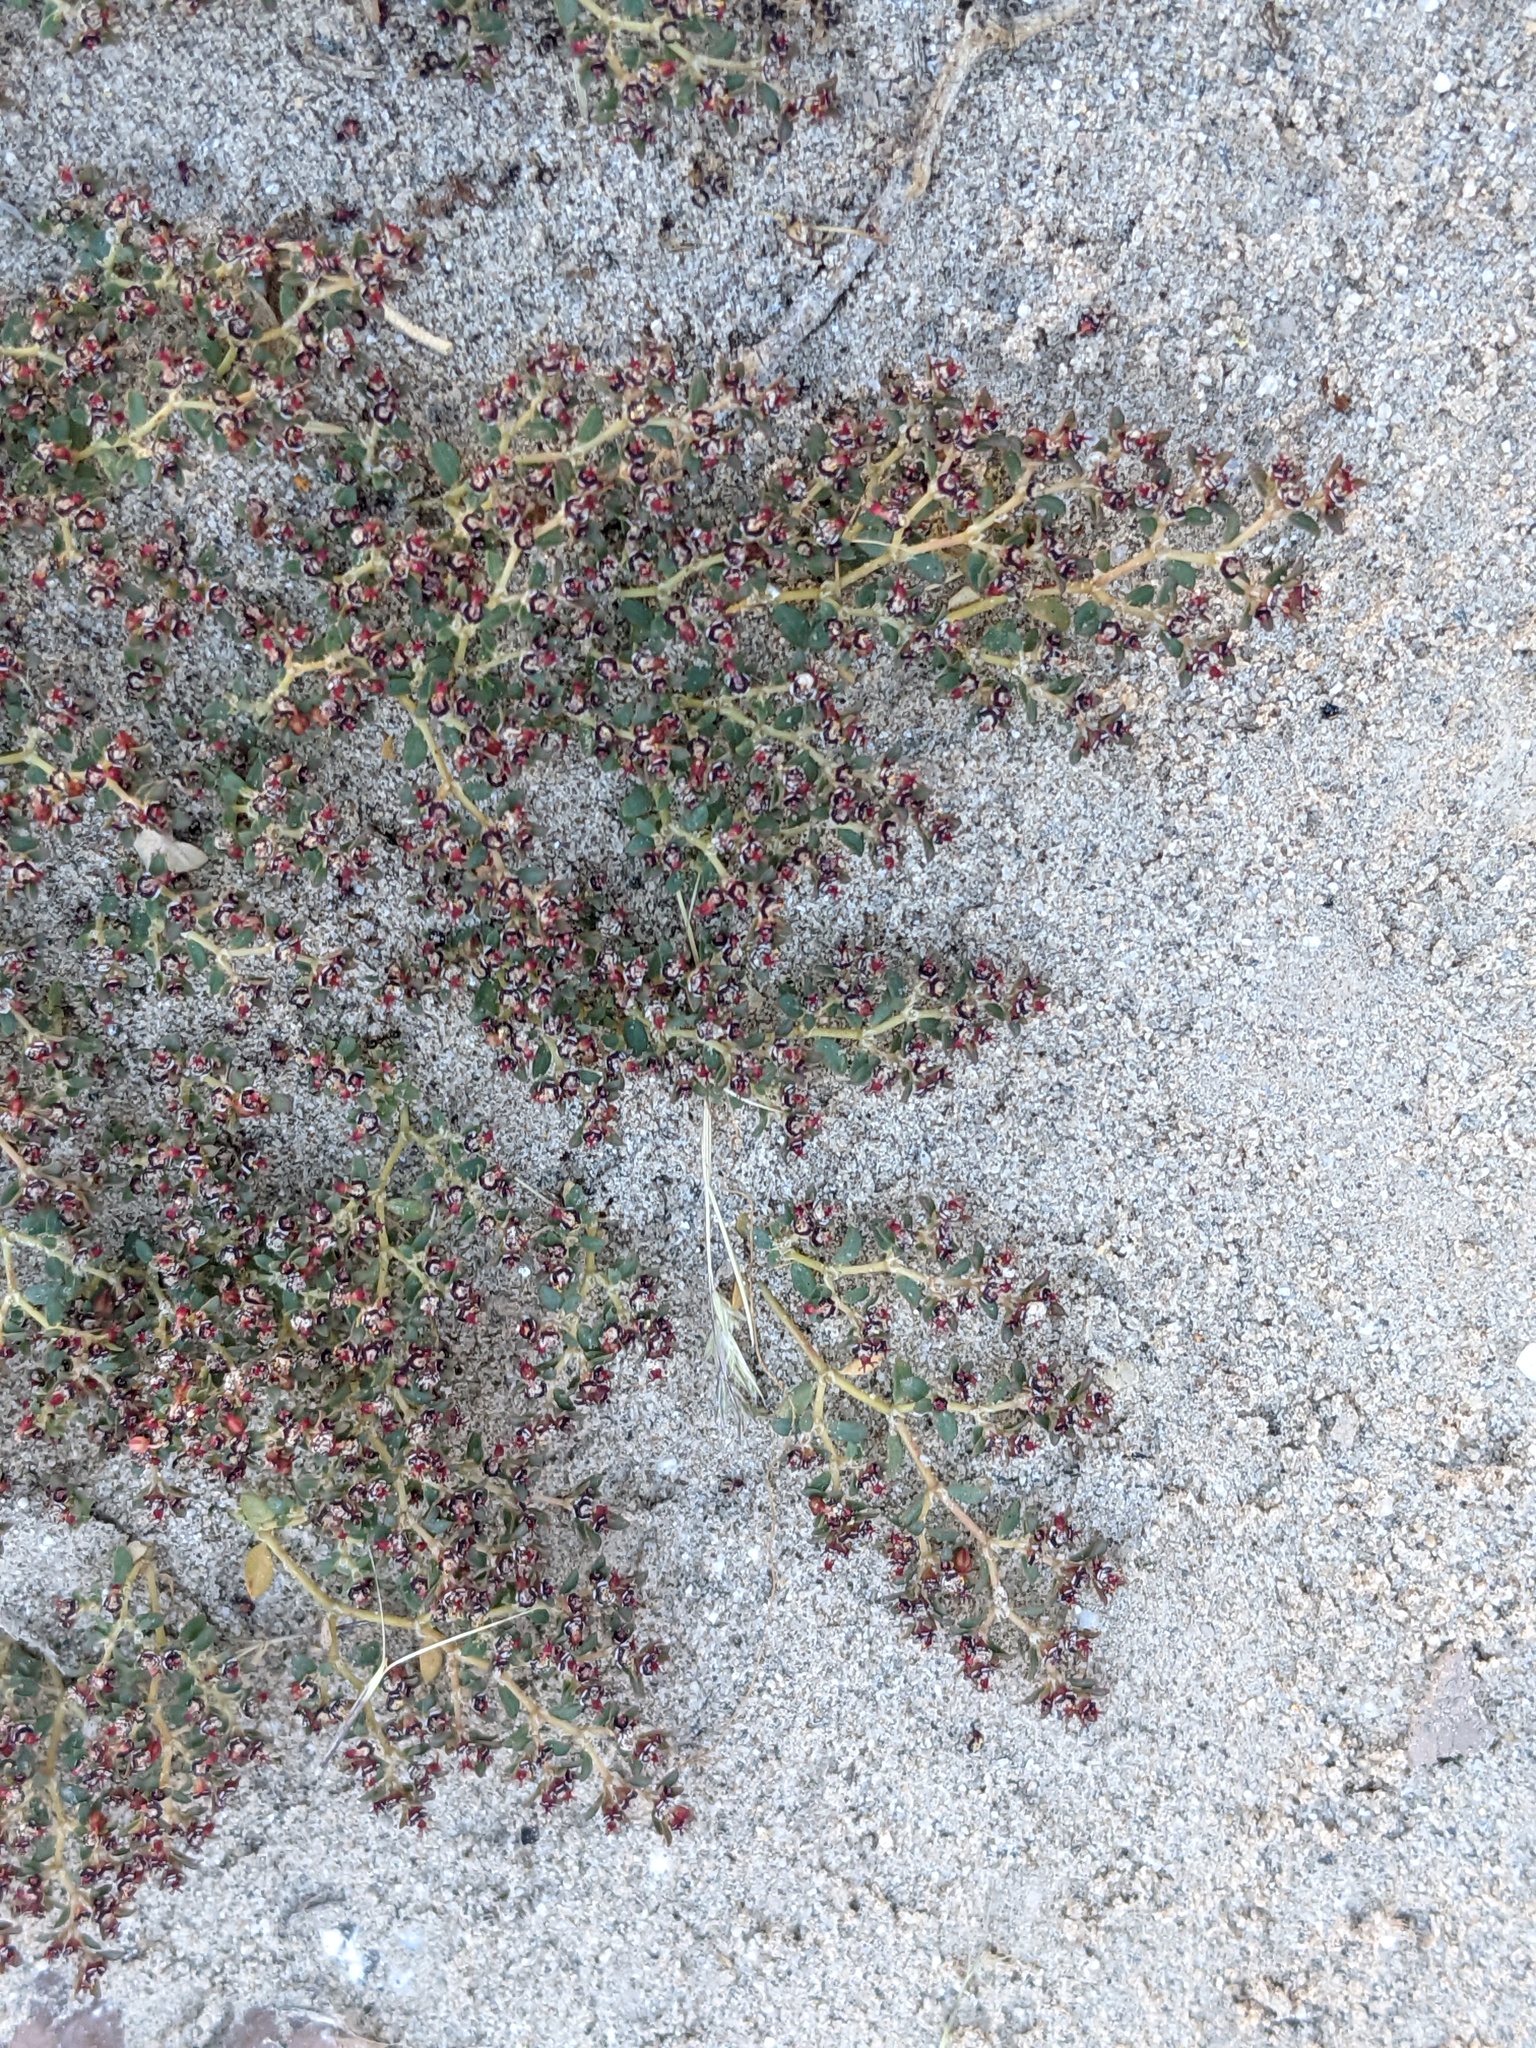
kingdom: Plantae
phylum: Tracheophyta
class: Magnoliopsida
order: Malpighiales
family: Euphorbiaceae
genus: Euphorbia
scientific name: Euphorbia polycarpa
